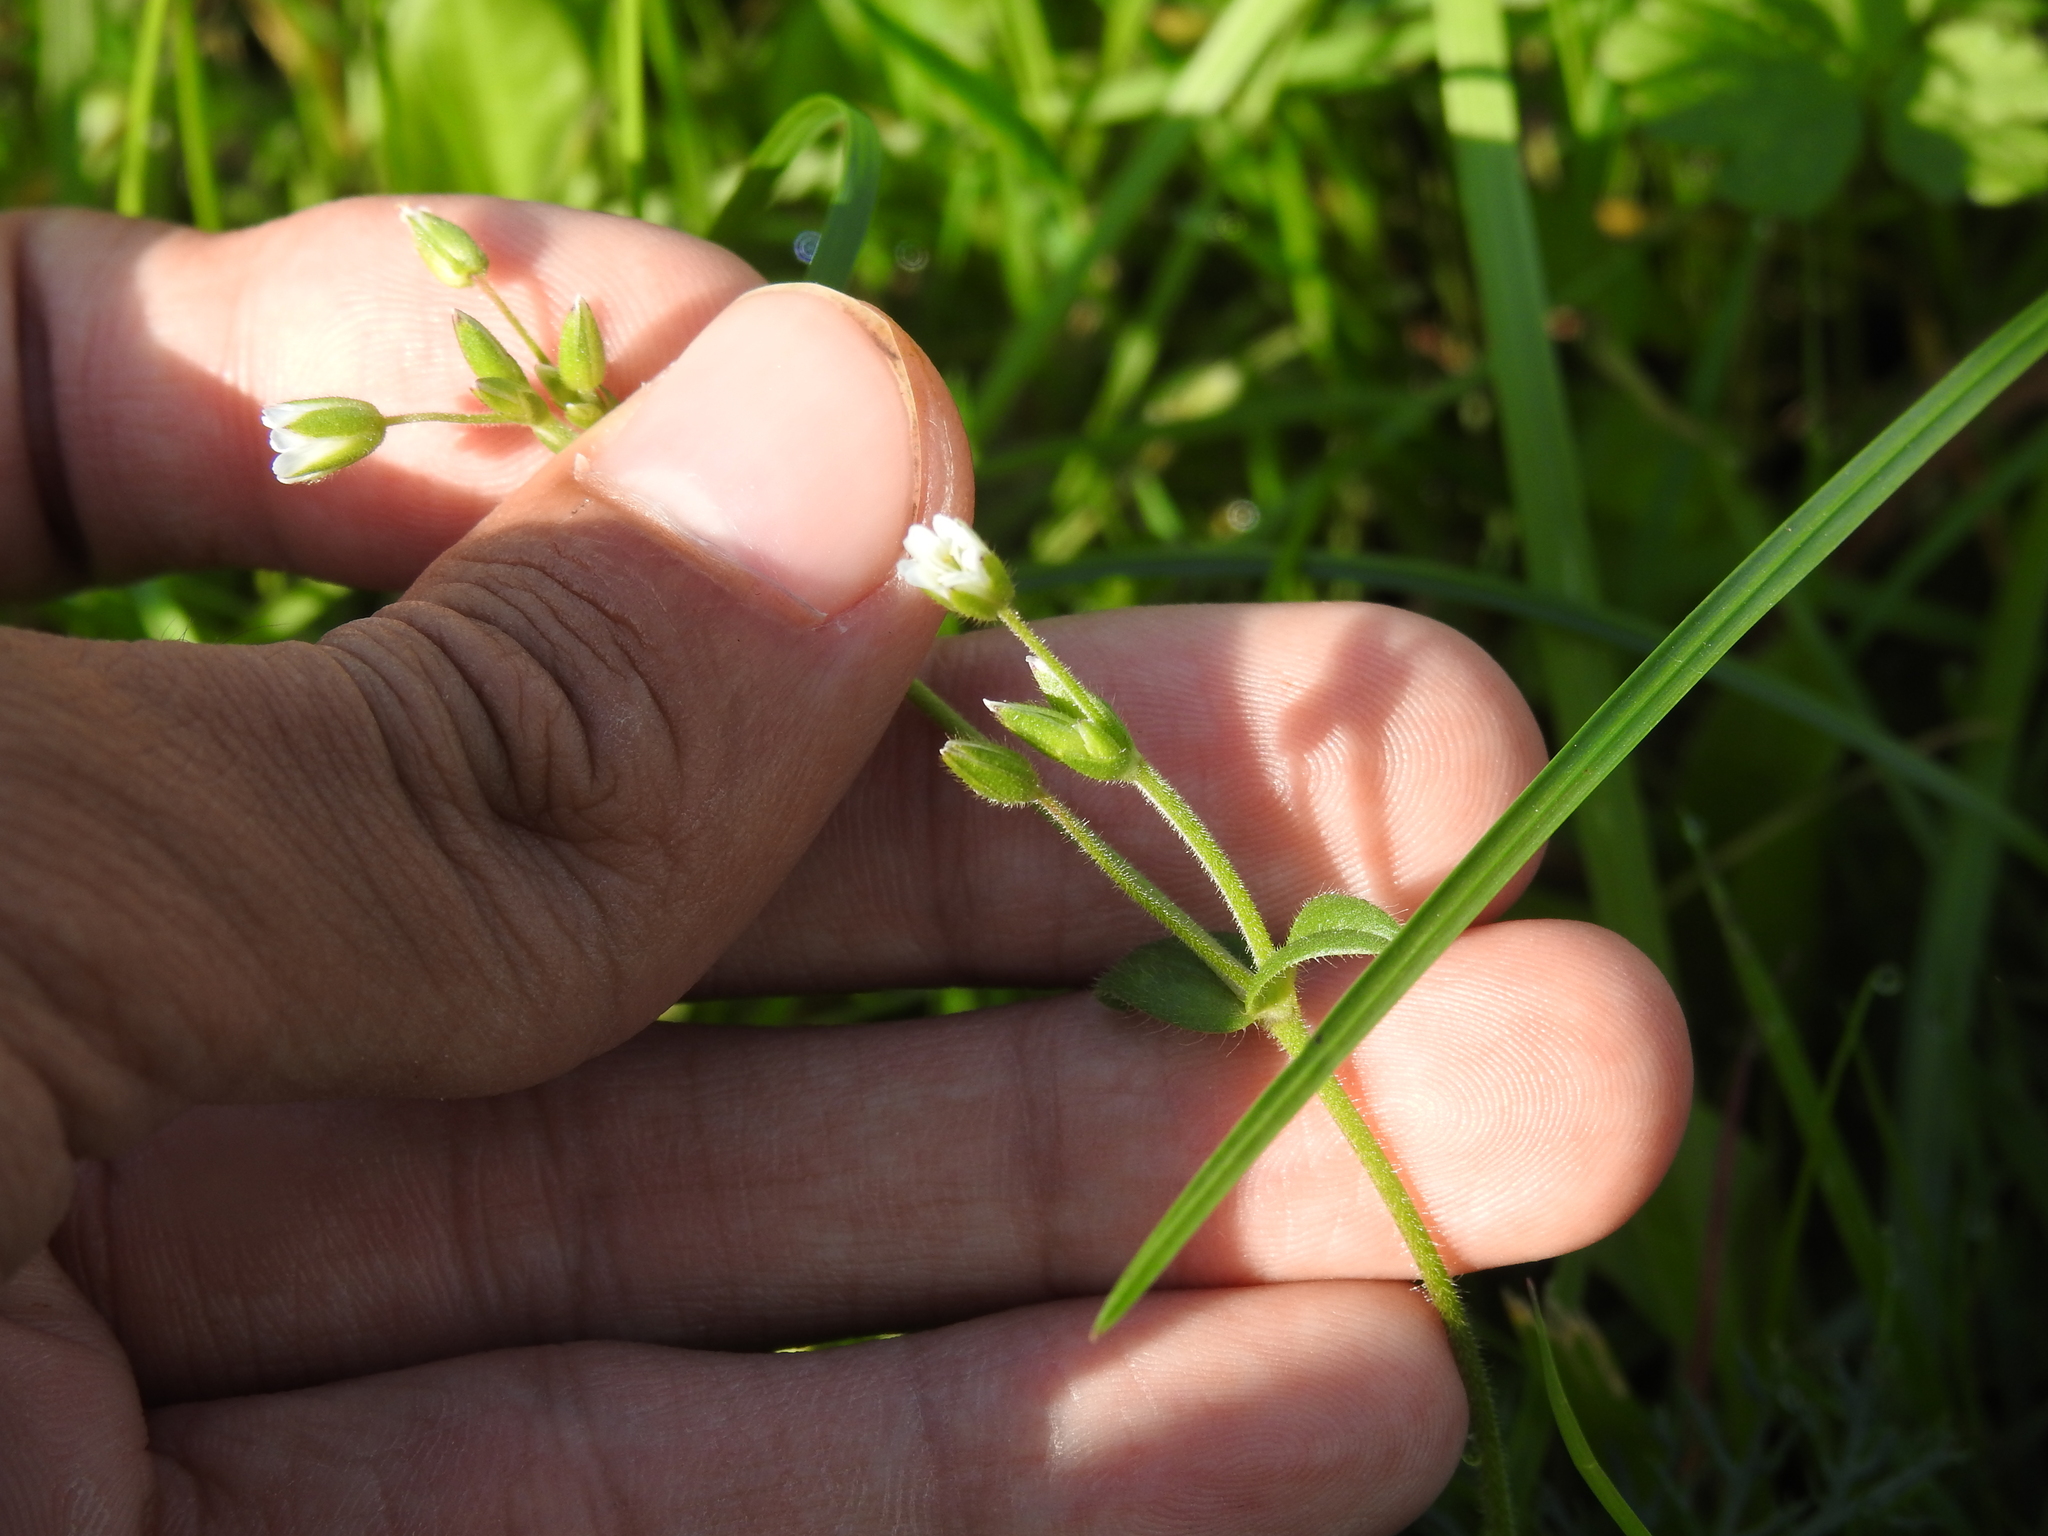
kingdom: Plantae
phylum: Tracheophyta
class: Magnoliopsida
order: Lamiales
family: Scrophulariaceae
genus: Scrophularia
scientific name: Scrophularia nodosa
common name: Common figwort
